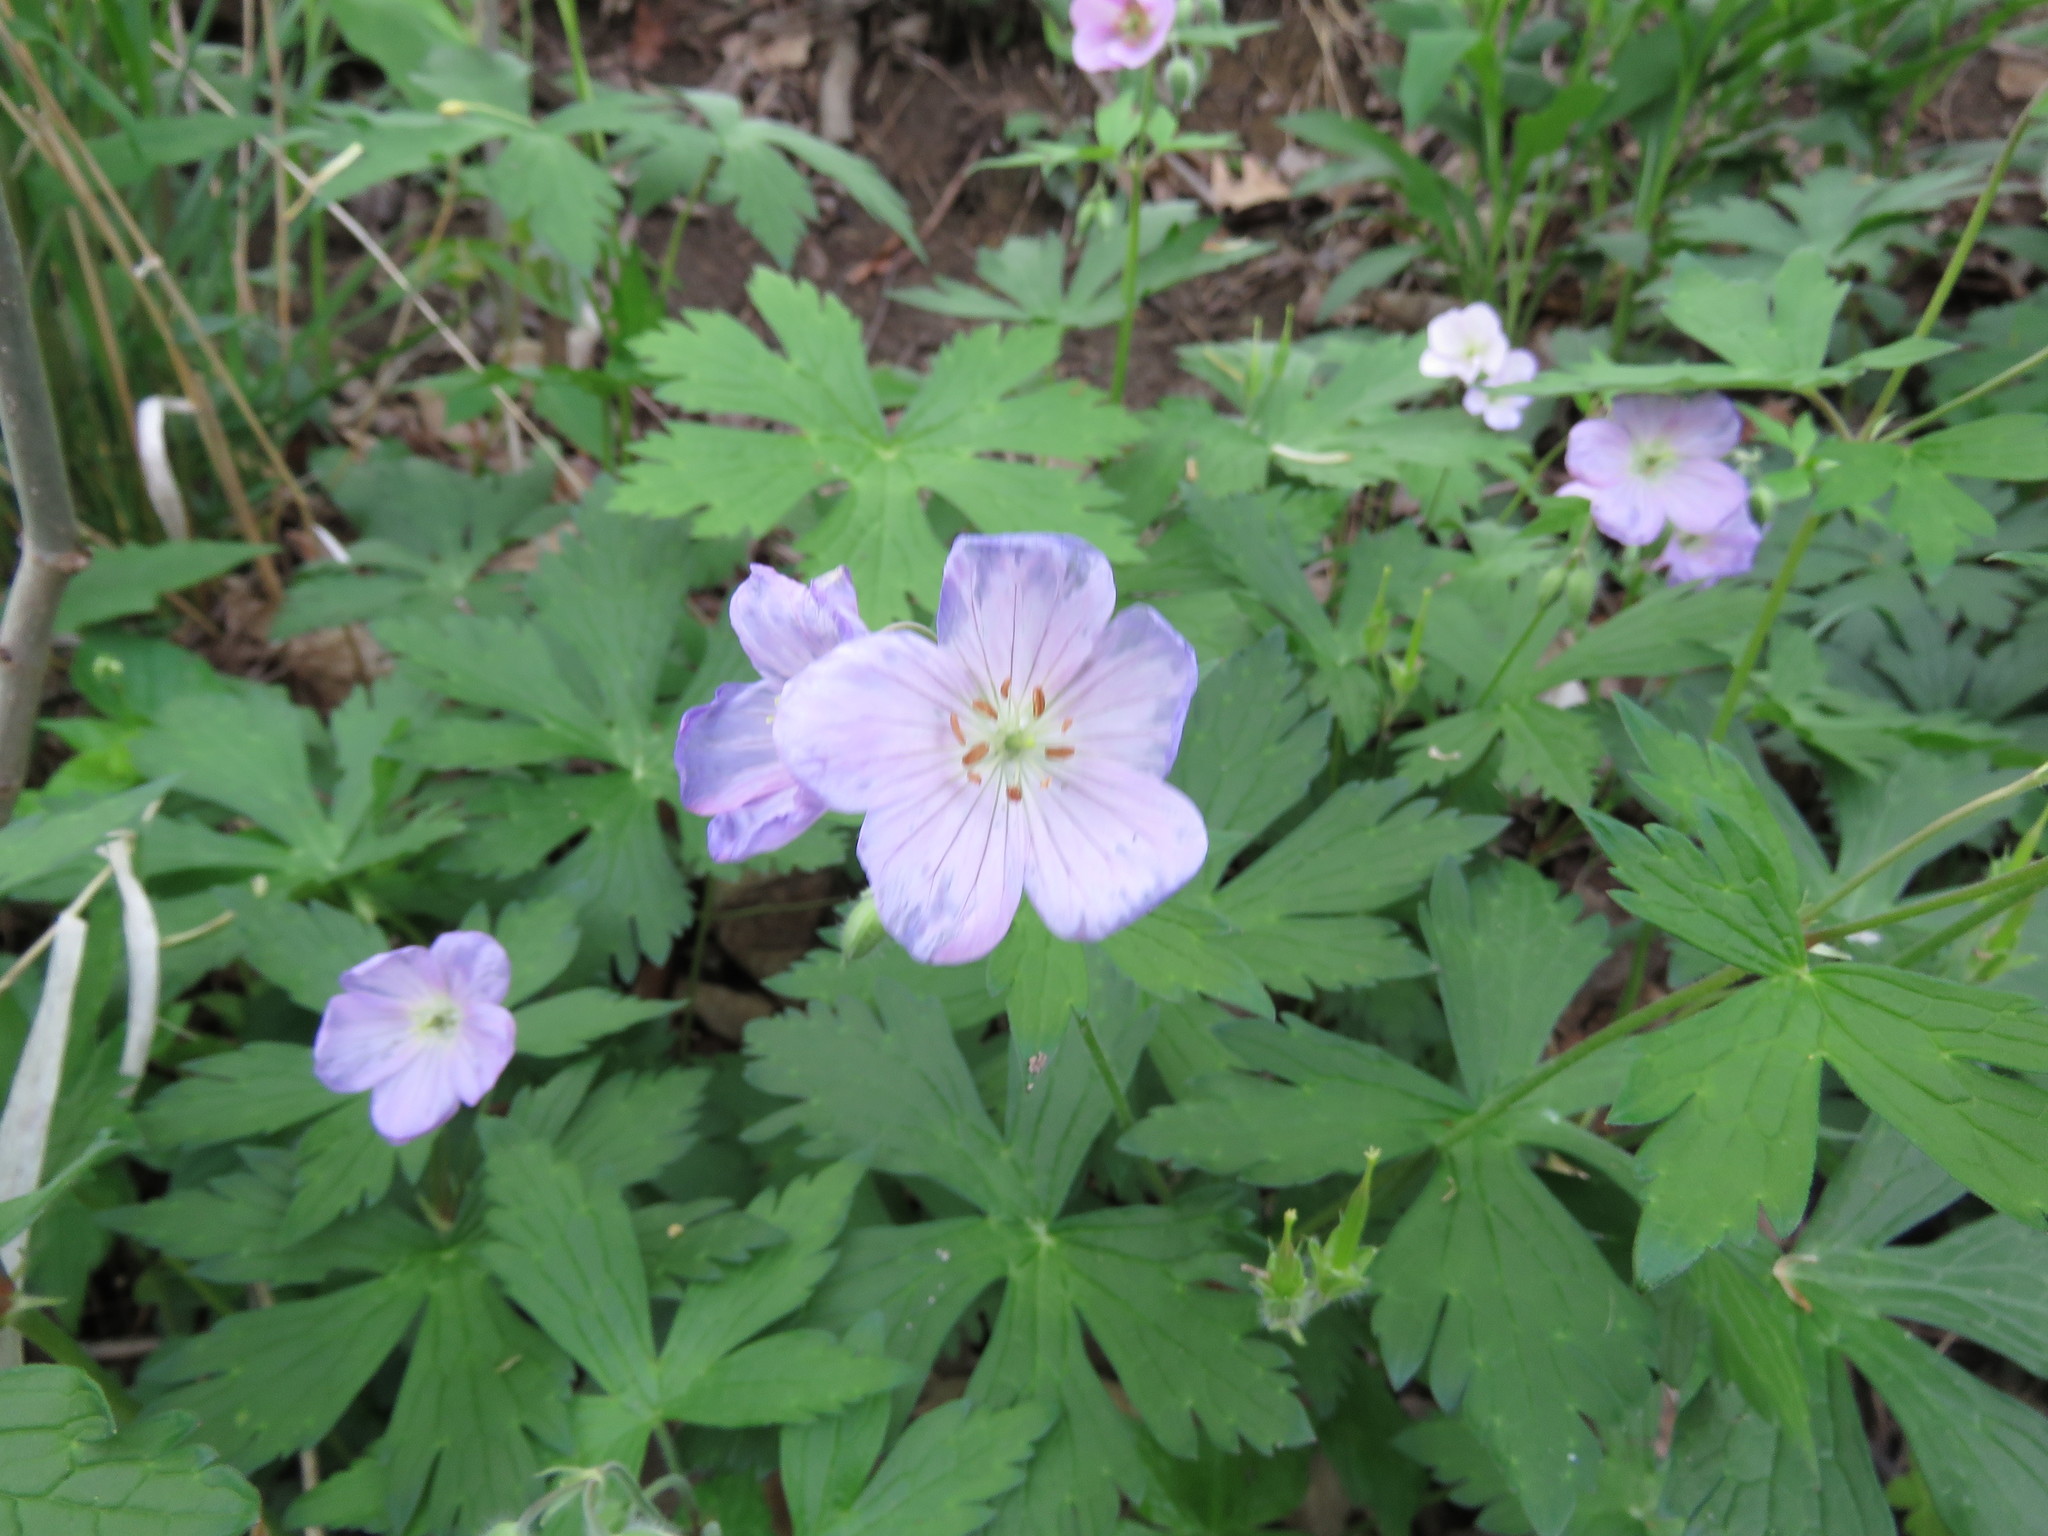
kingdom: Plantae
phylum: Tracheophyta
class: Magnoliopsida
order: Geraniales
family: Geraniaceae
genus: Geranium
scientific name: Geranium maculatum
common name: Spotted geranium
